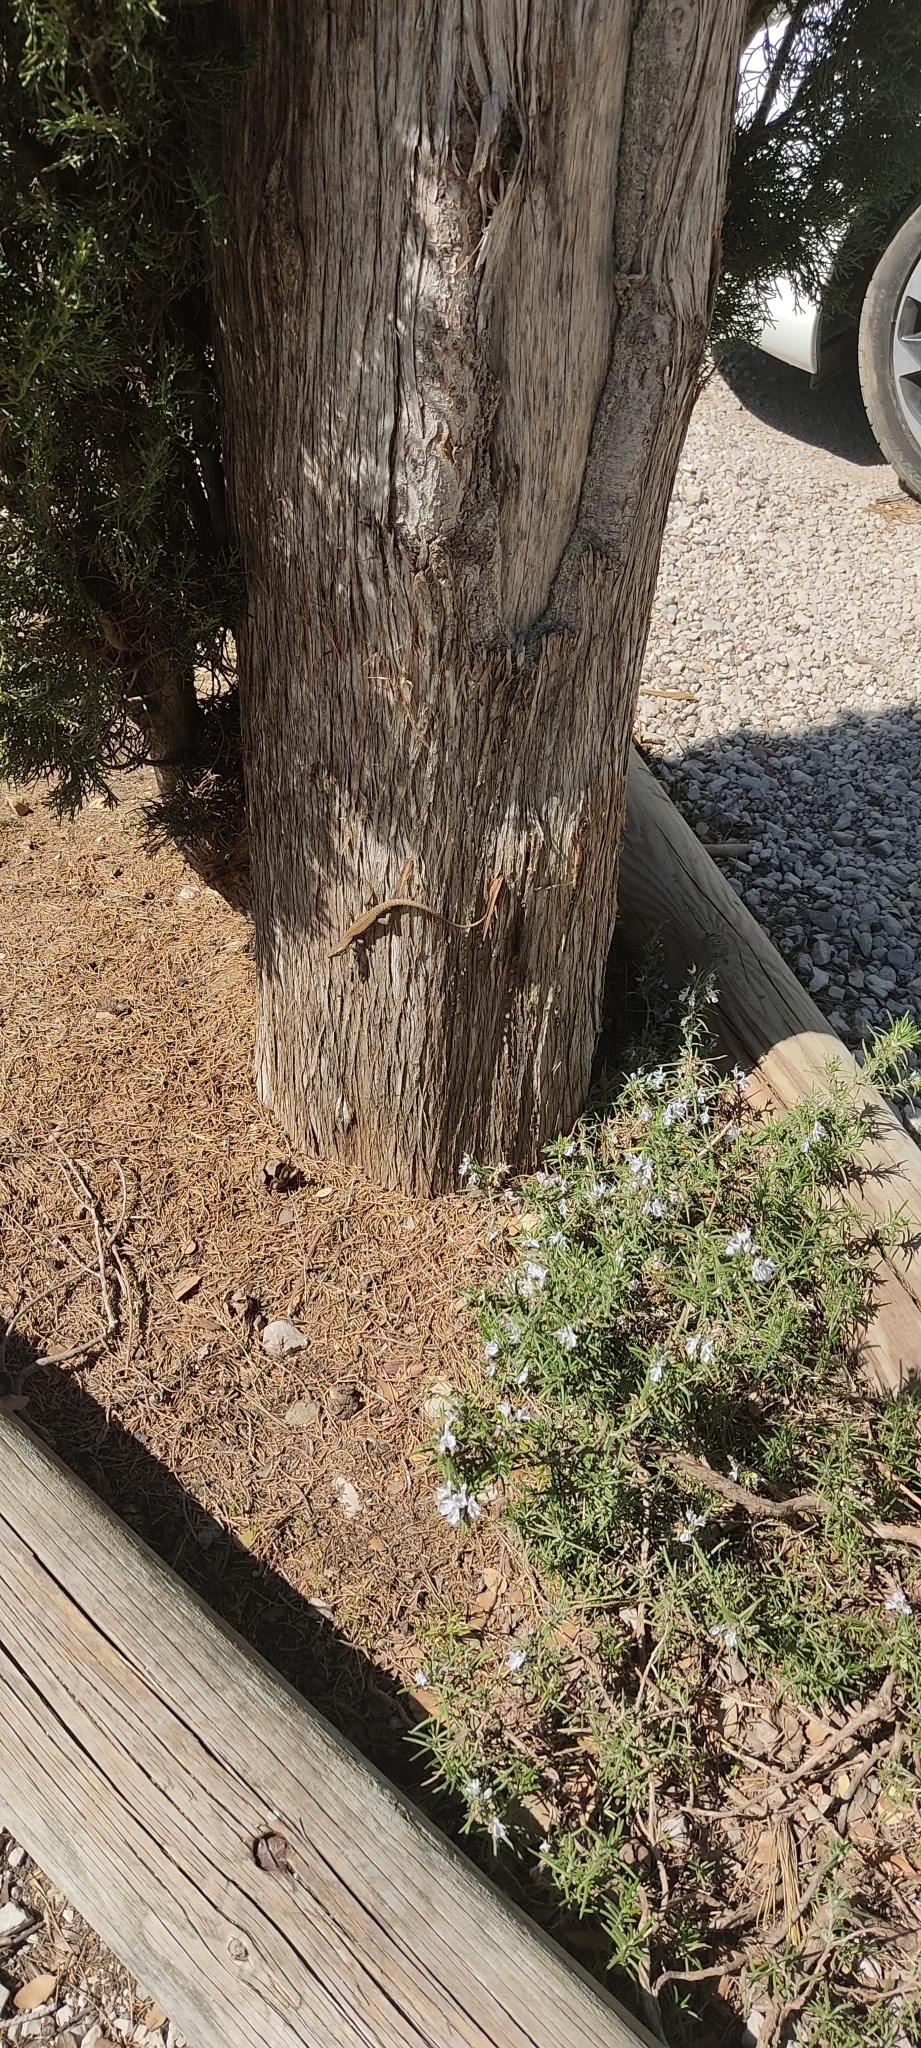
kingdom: Animalia
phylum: Chordata
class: Squamata
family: Lacertidae
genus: Podarcis
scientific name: Podarcis muralis
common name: Common wall lizard
